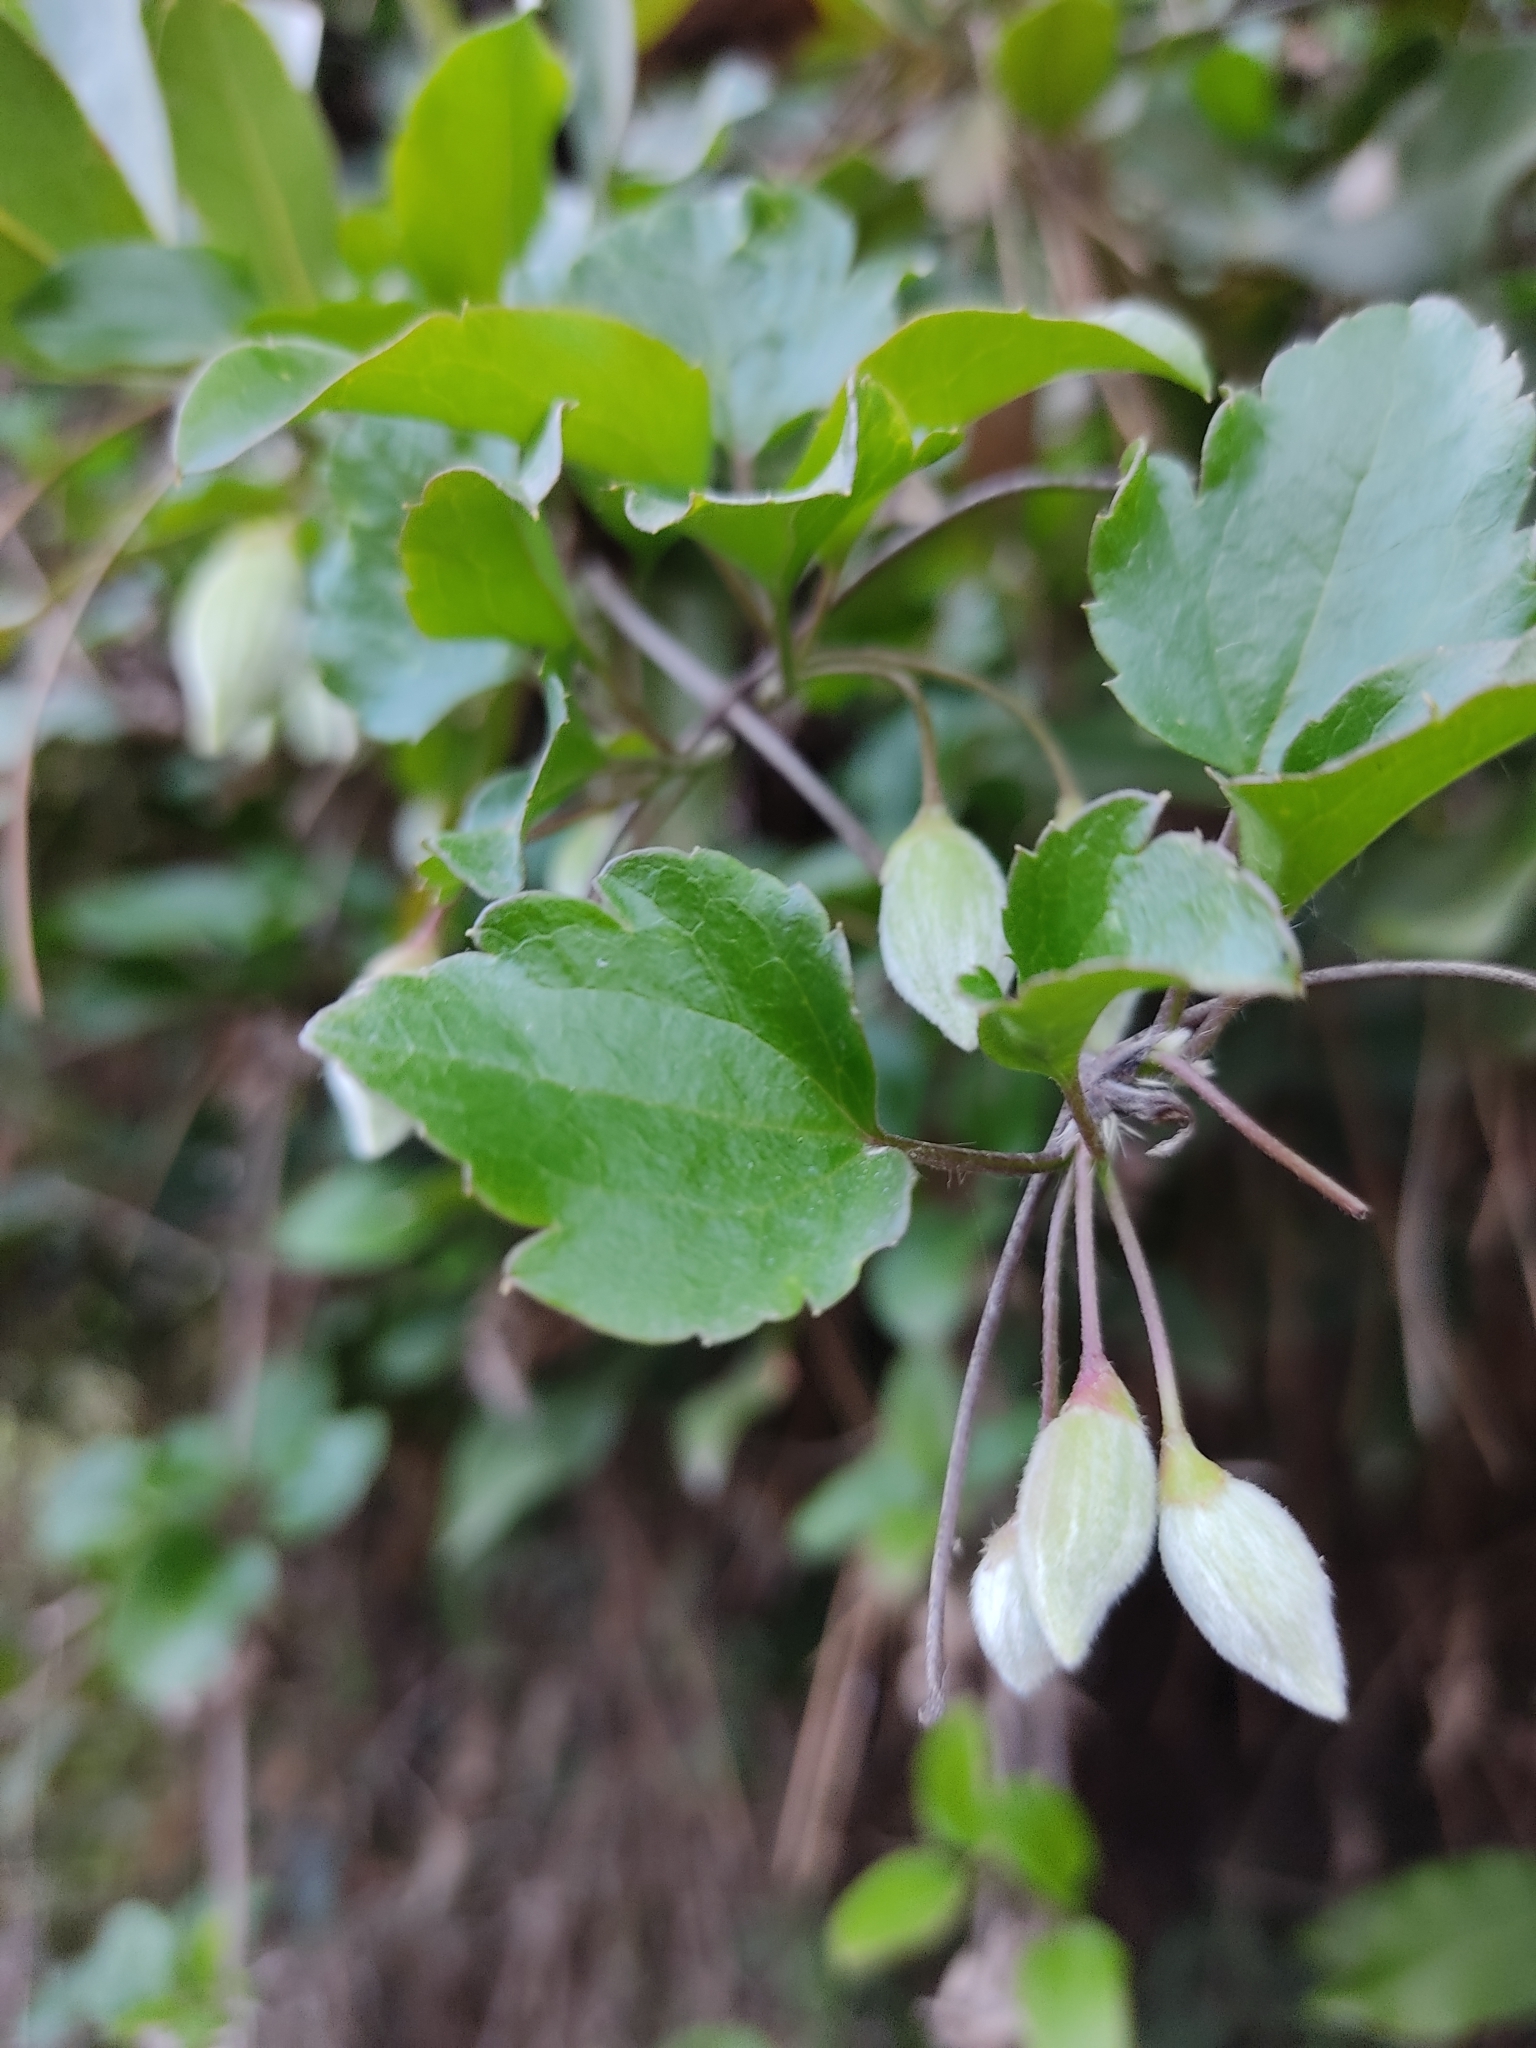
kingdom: Plantae
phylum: Tracheophyta
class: Magnoliopsida
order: Ranunculales
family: Ranunculaceae
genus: Clematis
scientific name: Clematis cirrhosa
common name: Early virgin's-bower
